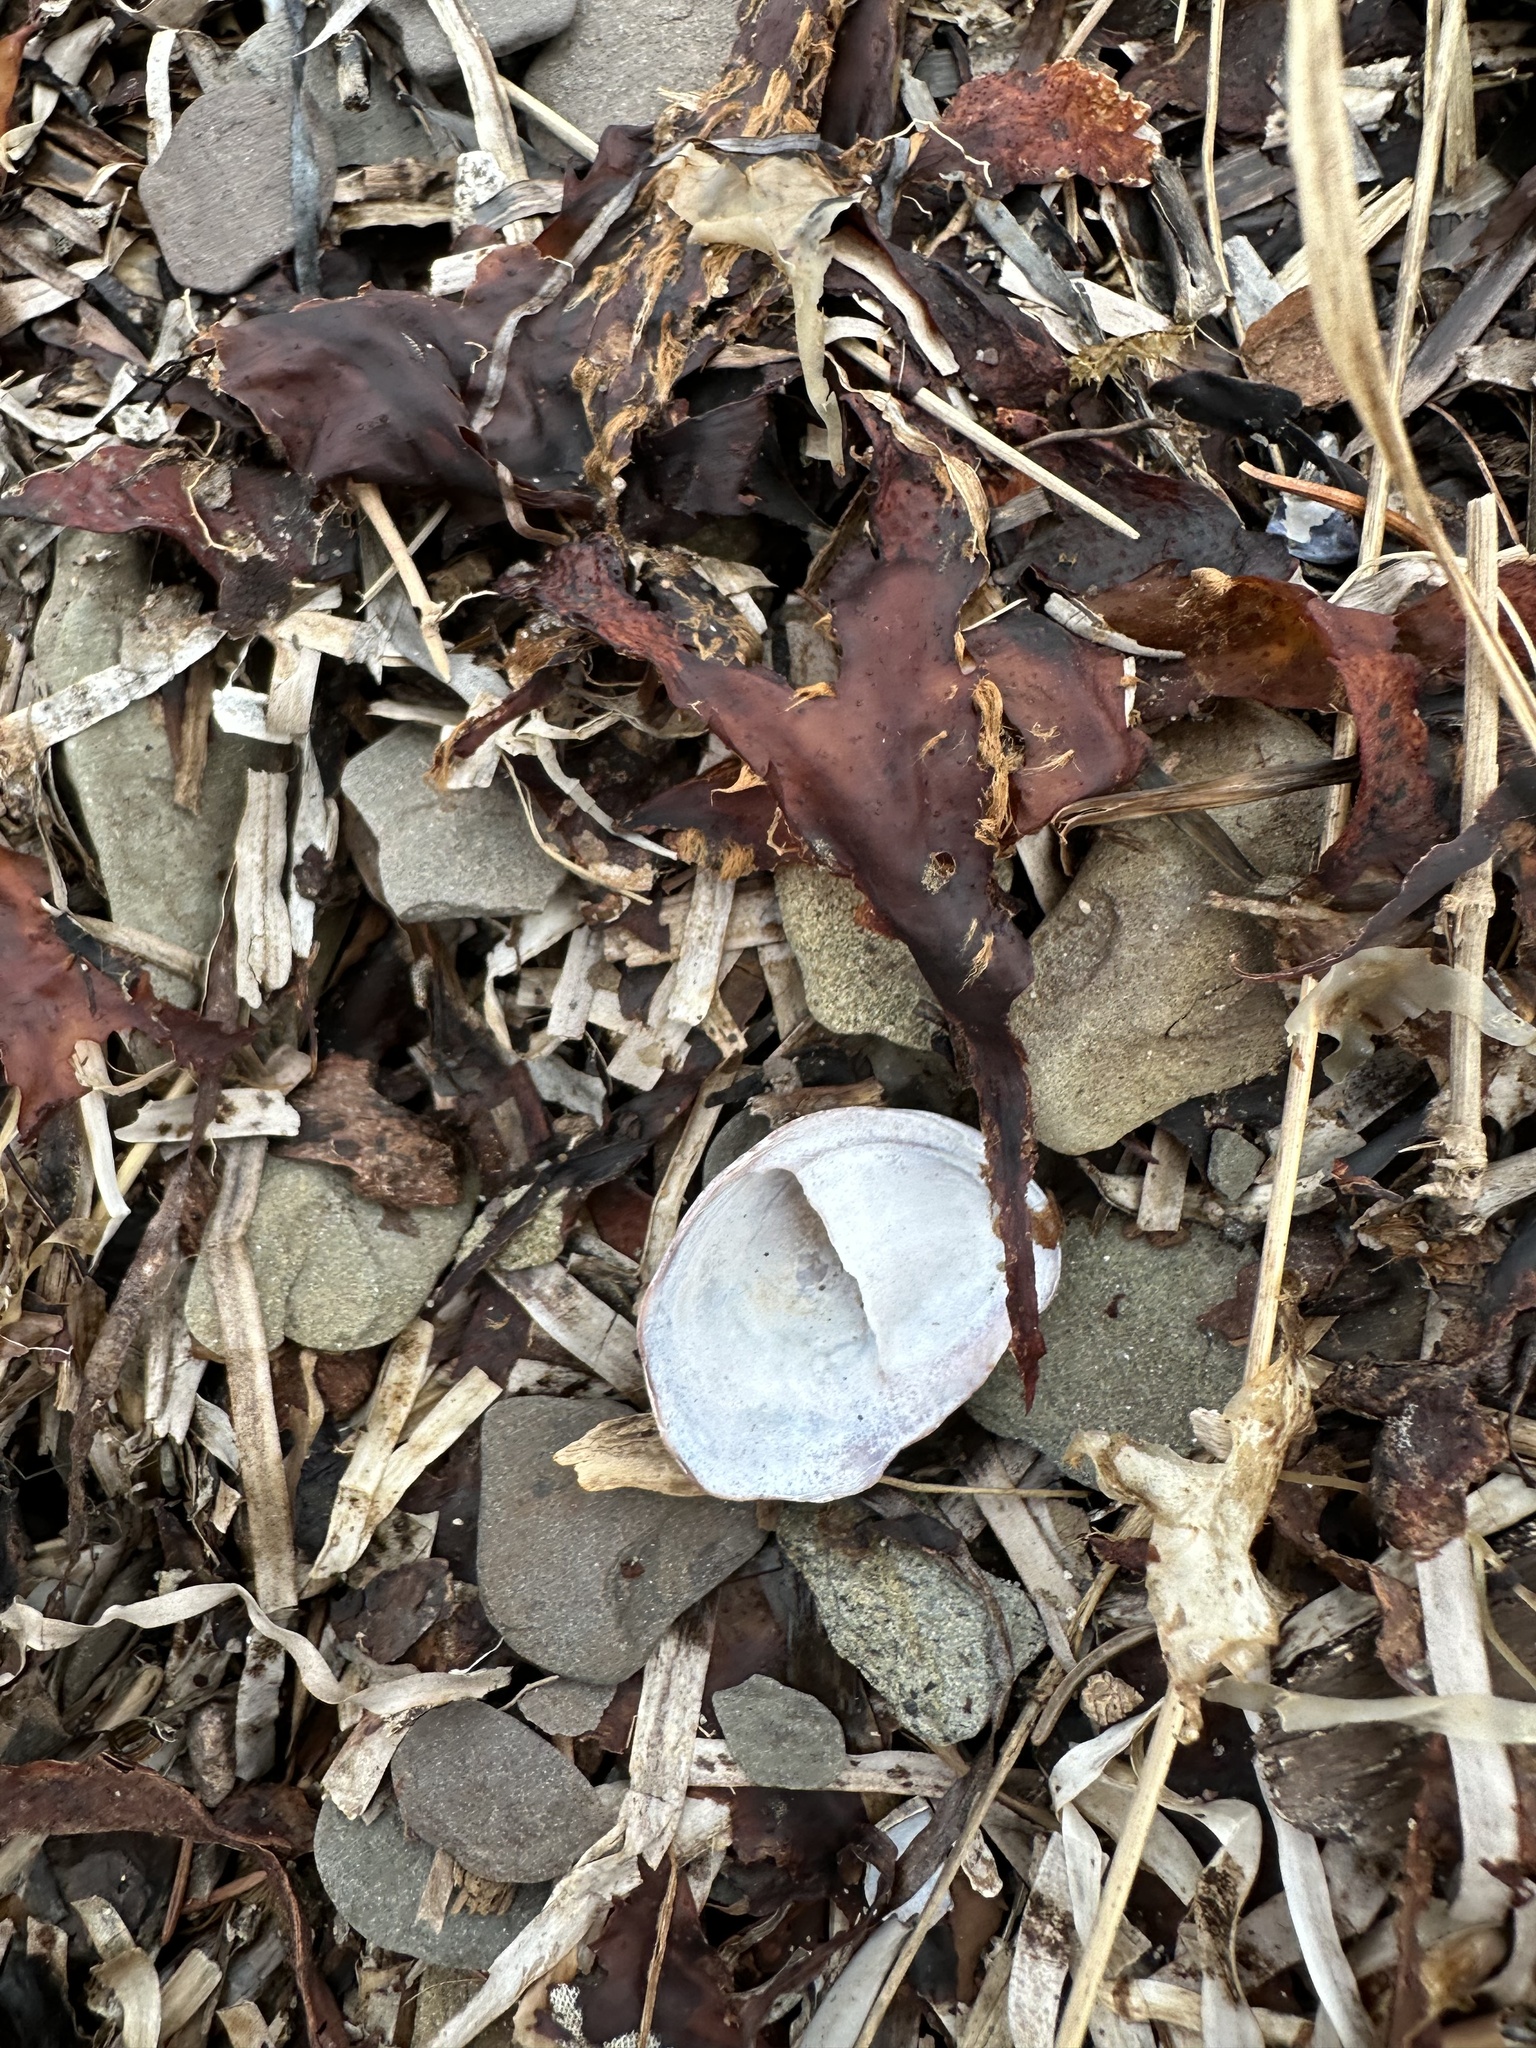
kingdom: Animalia
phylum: Mollusca
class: Gastropoda
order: Littorinimorpha
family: Calyptraeidae
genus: Crepidula
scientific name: Crepidula fornicata
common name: Slipper limpet
